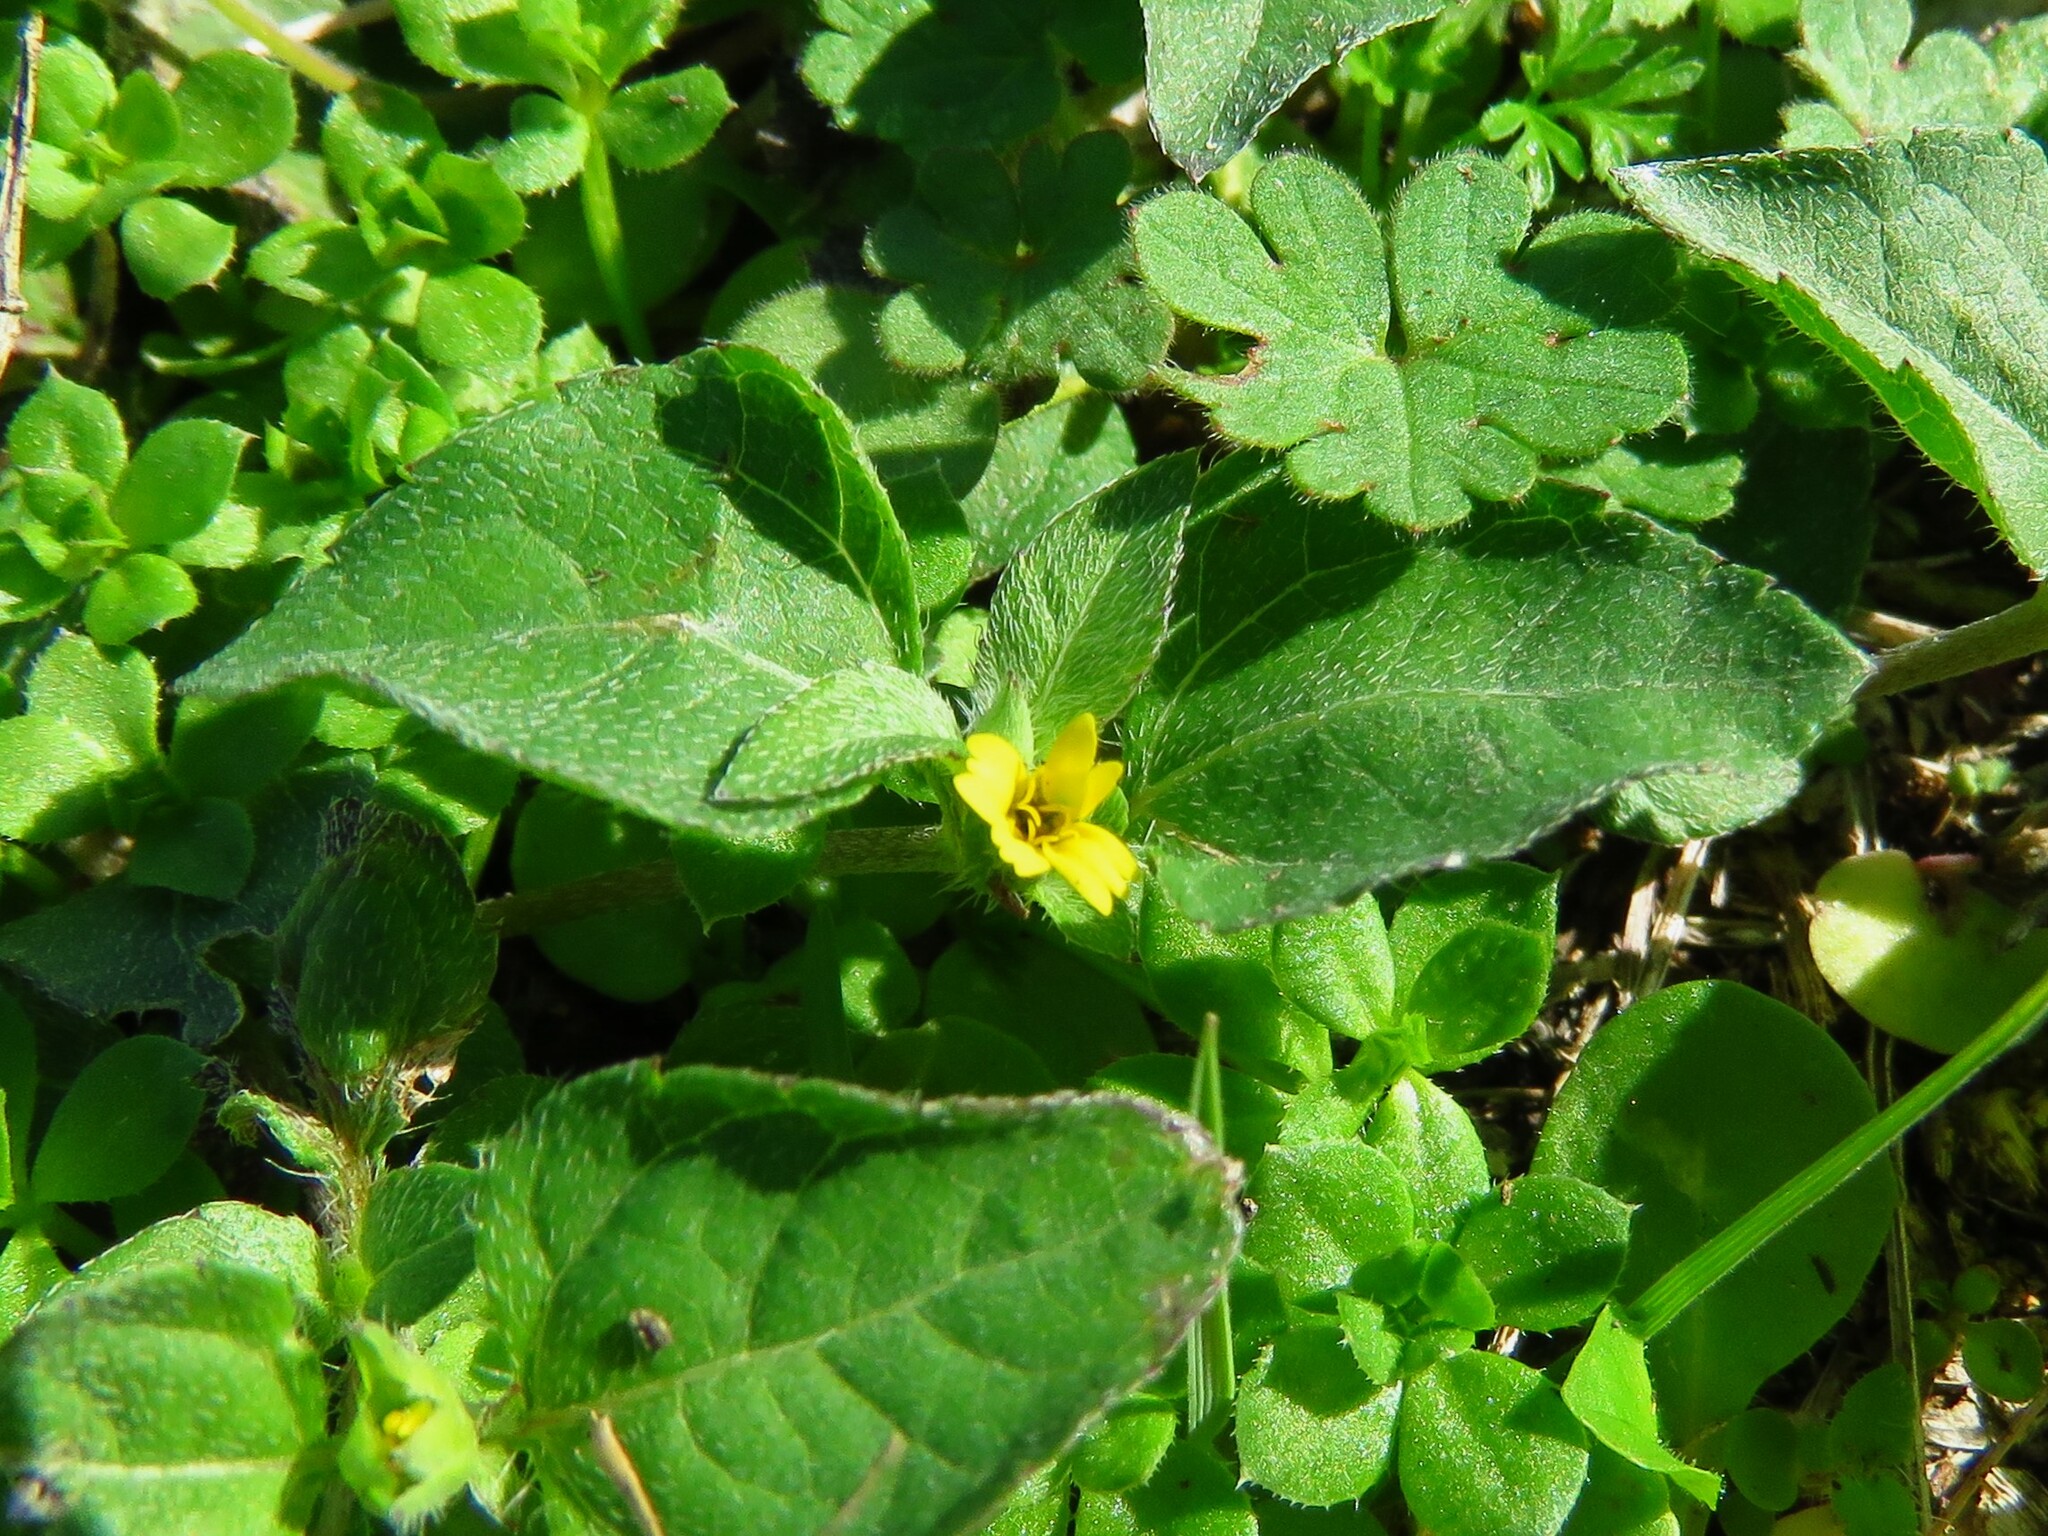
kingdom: Plantae
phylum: Tracheophyta
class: Magnoliopsida
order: Asterales
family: Asteraceae
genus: Calyptocarpus
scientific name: Calyptocarpus vialis
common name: Straggler daisy
